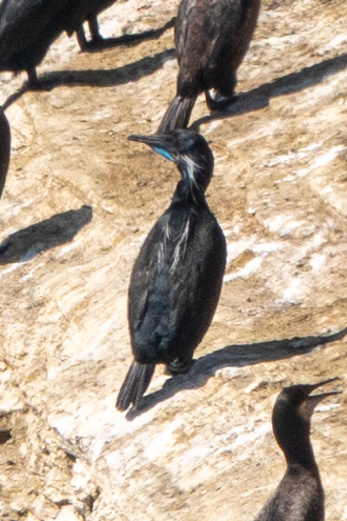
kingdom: Animalia
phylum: Chordata
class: Aves
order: Suliformes
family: Phalacrocoracidae
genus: Urile
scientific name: Urile penicillatus
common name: Brandt's cormorant
